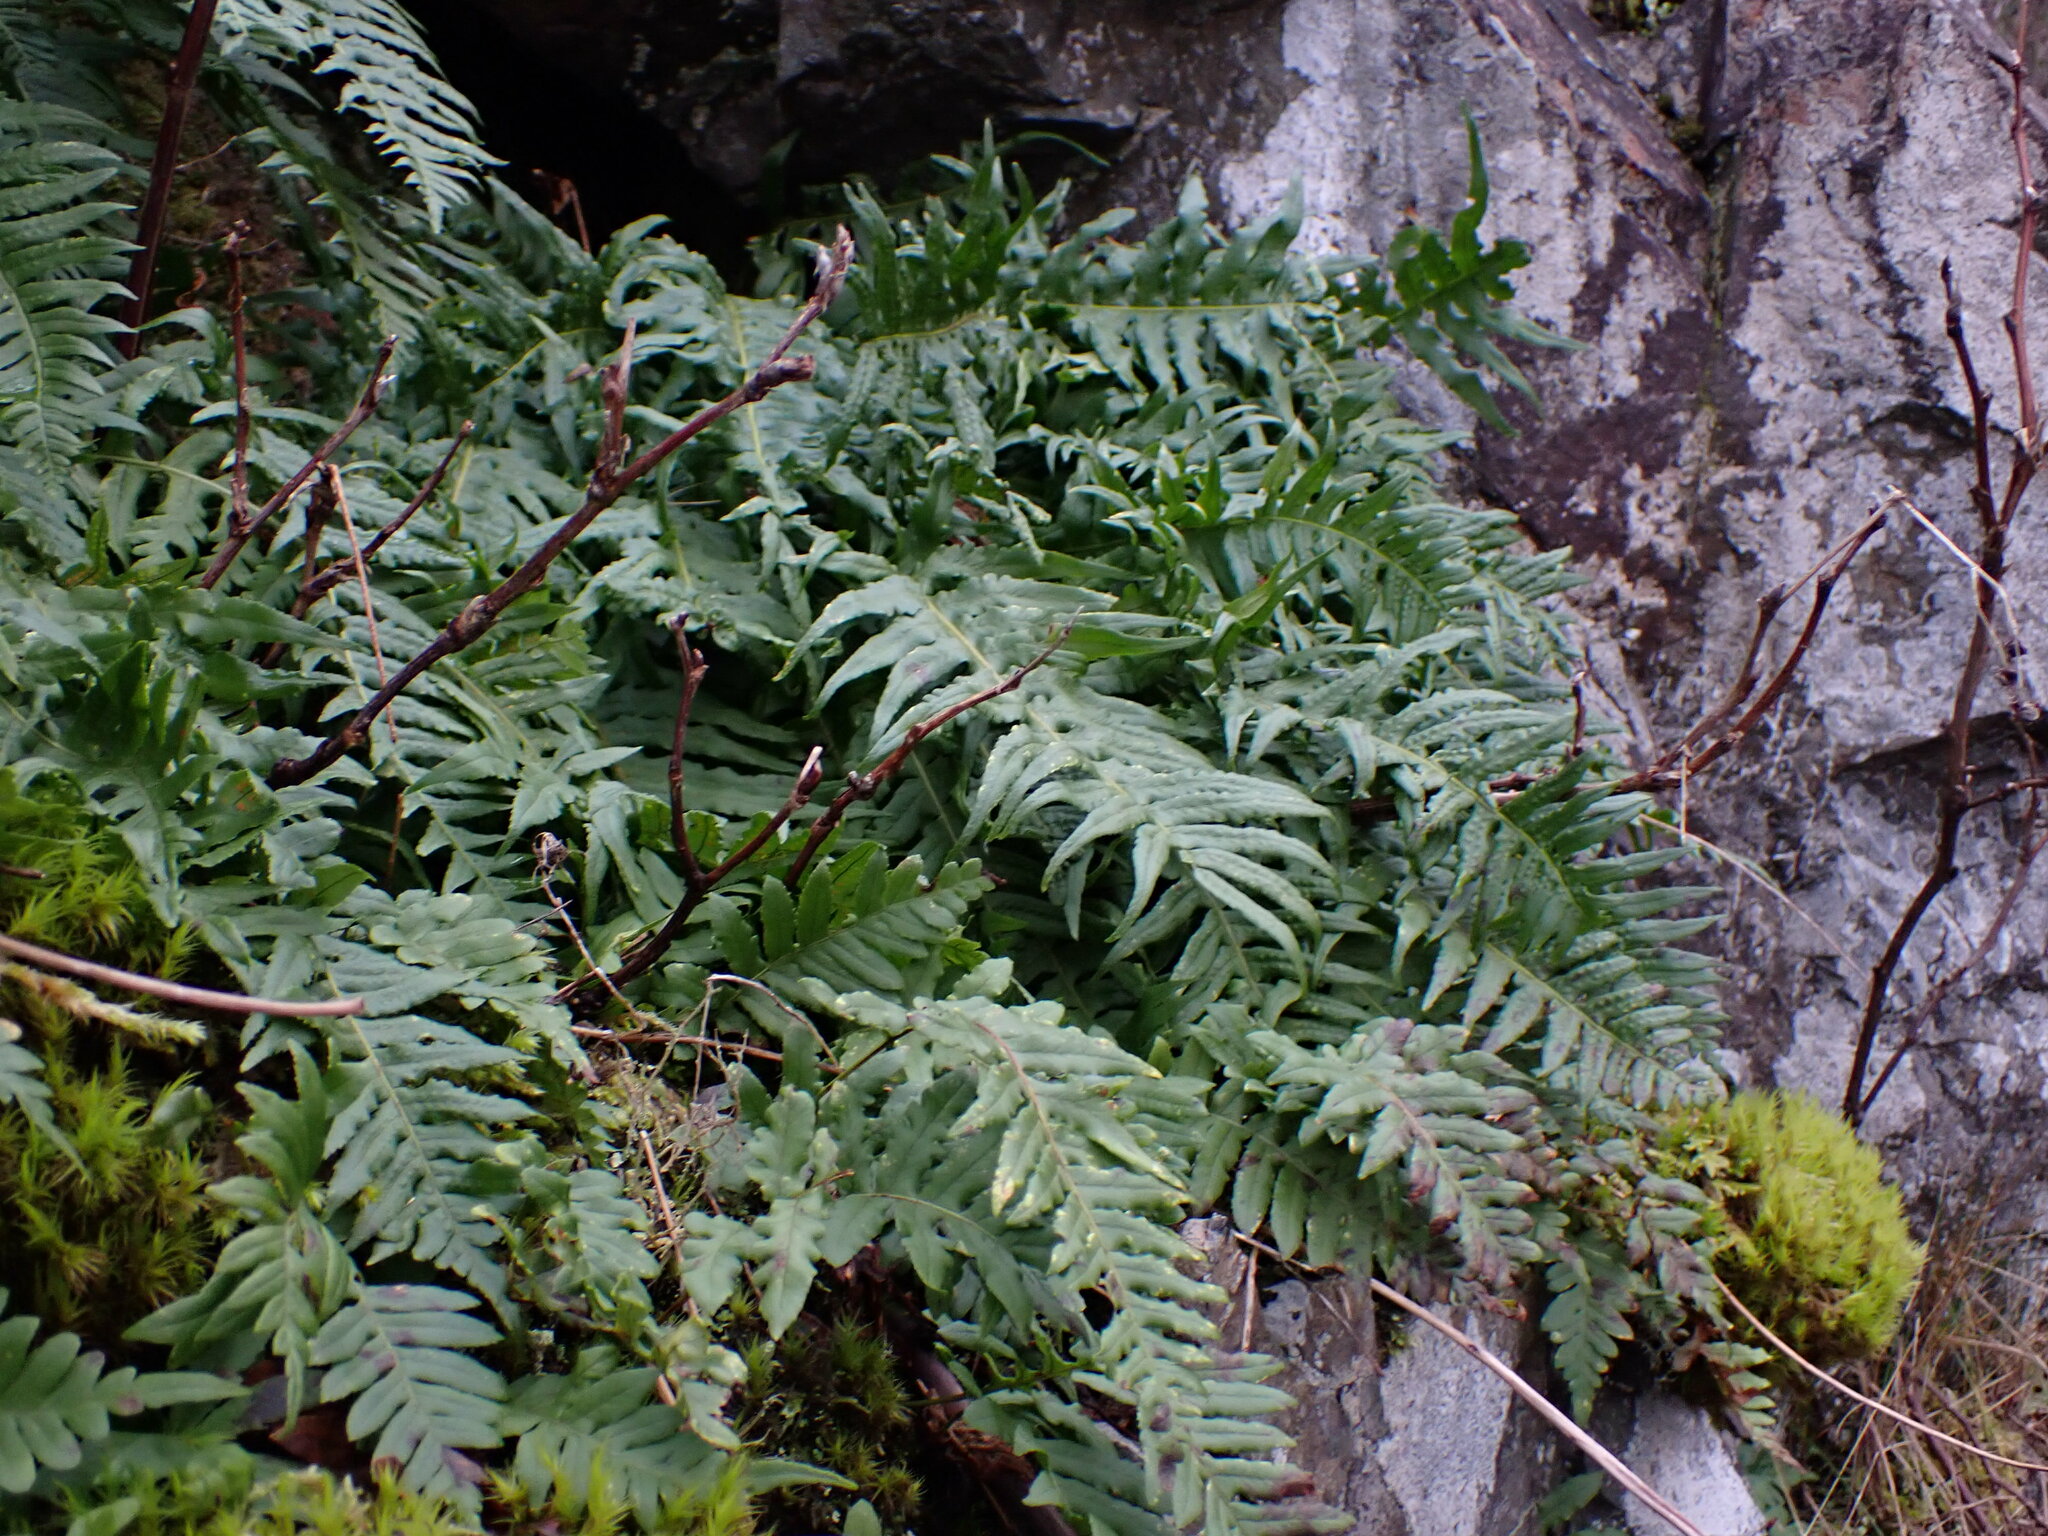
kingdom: Plantae
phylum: Tracheophyta
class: Polypodiopsida
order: Polypodiales
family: Polypodiaceae
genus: Polypodium
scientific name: Polypodium glycyrrhiza
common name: Licorice fern
